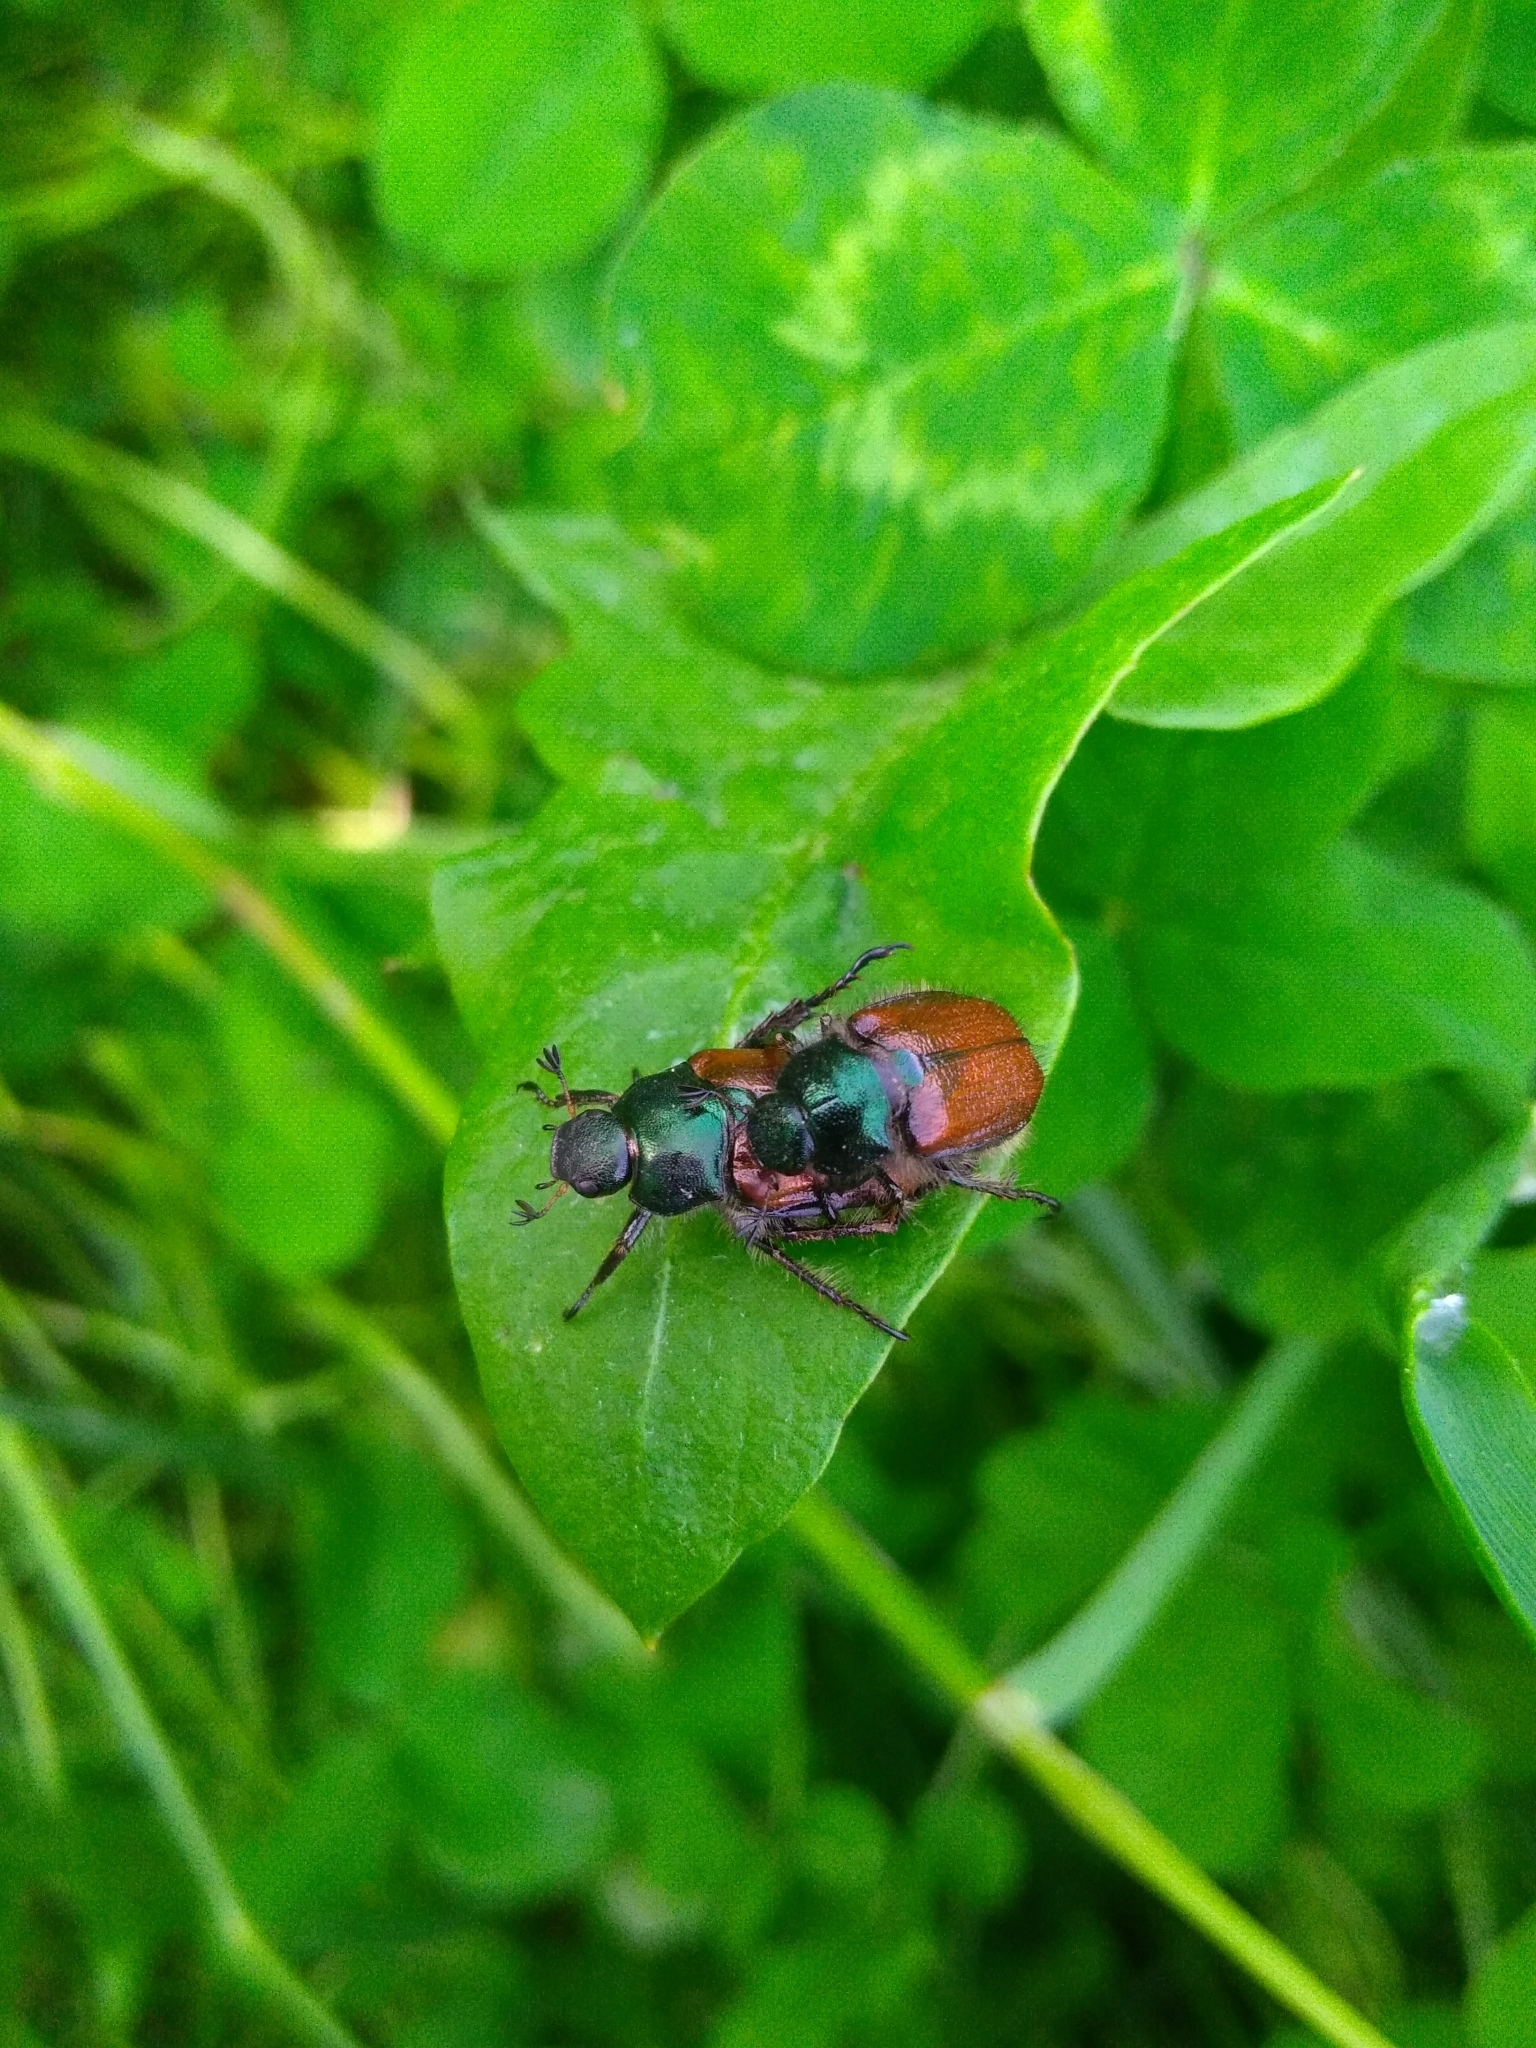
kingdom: Animalia
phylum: Arthropoda
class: Insecta
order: Coleoptera
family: Scarabaeidae
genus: Phyllopertha
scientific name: Phyllopertha horticola
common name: Garden chafer
